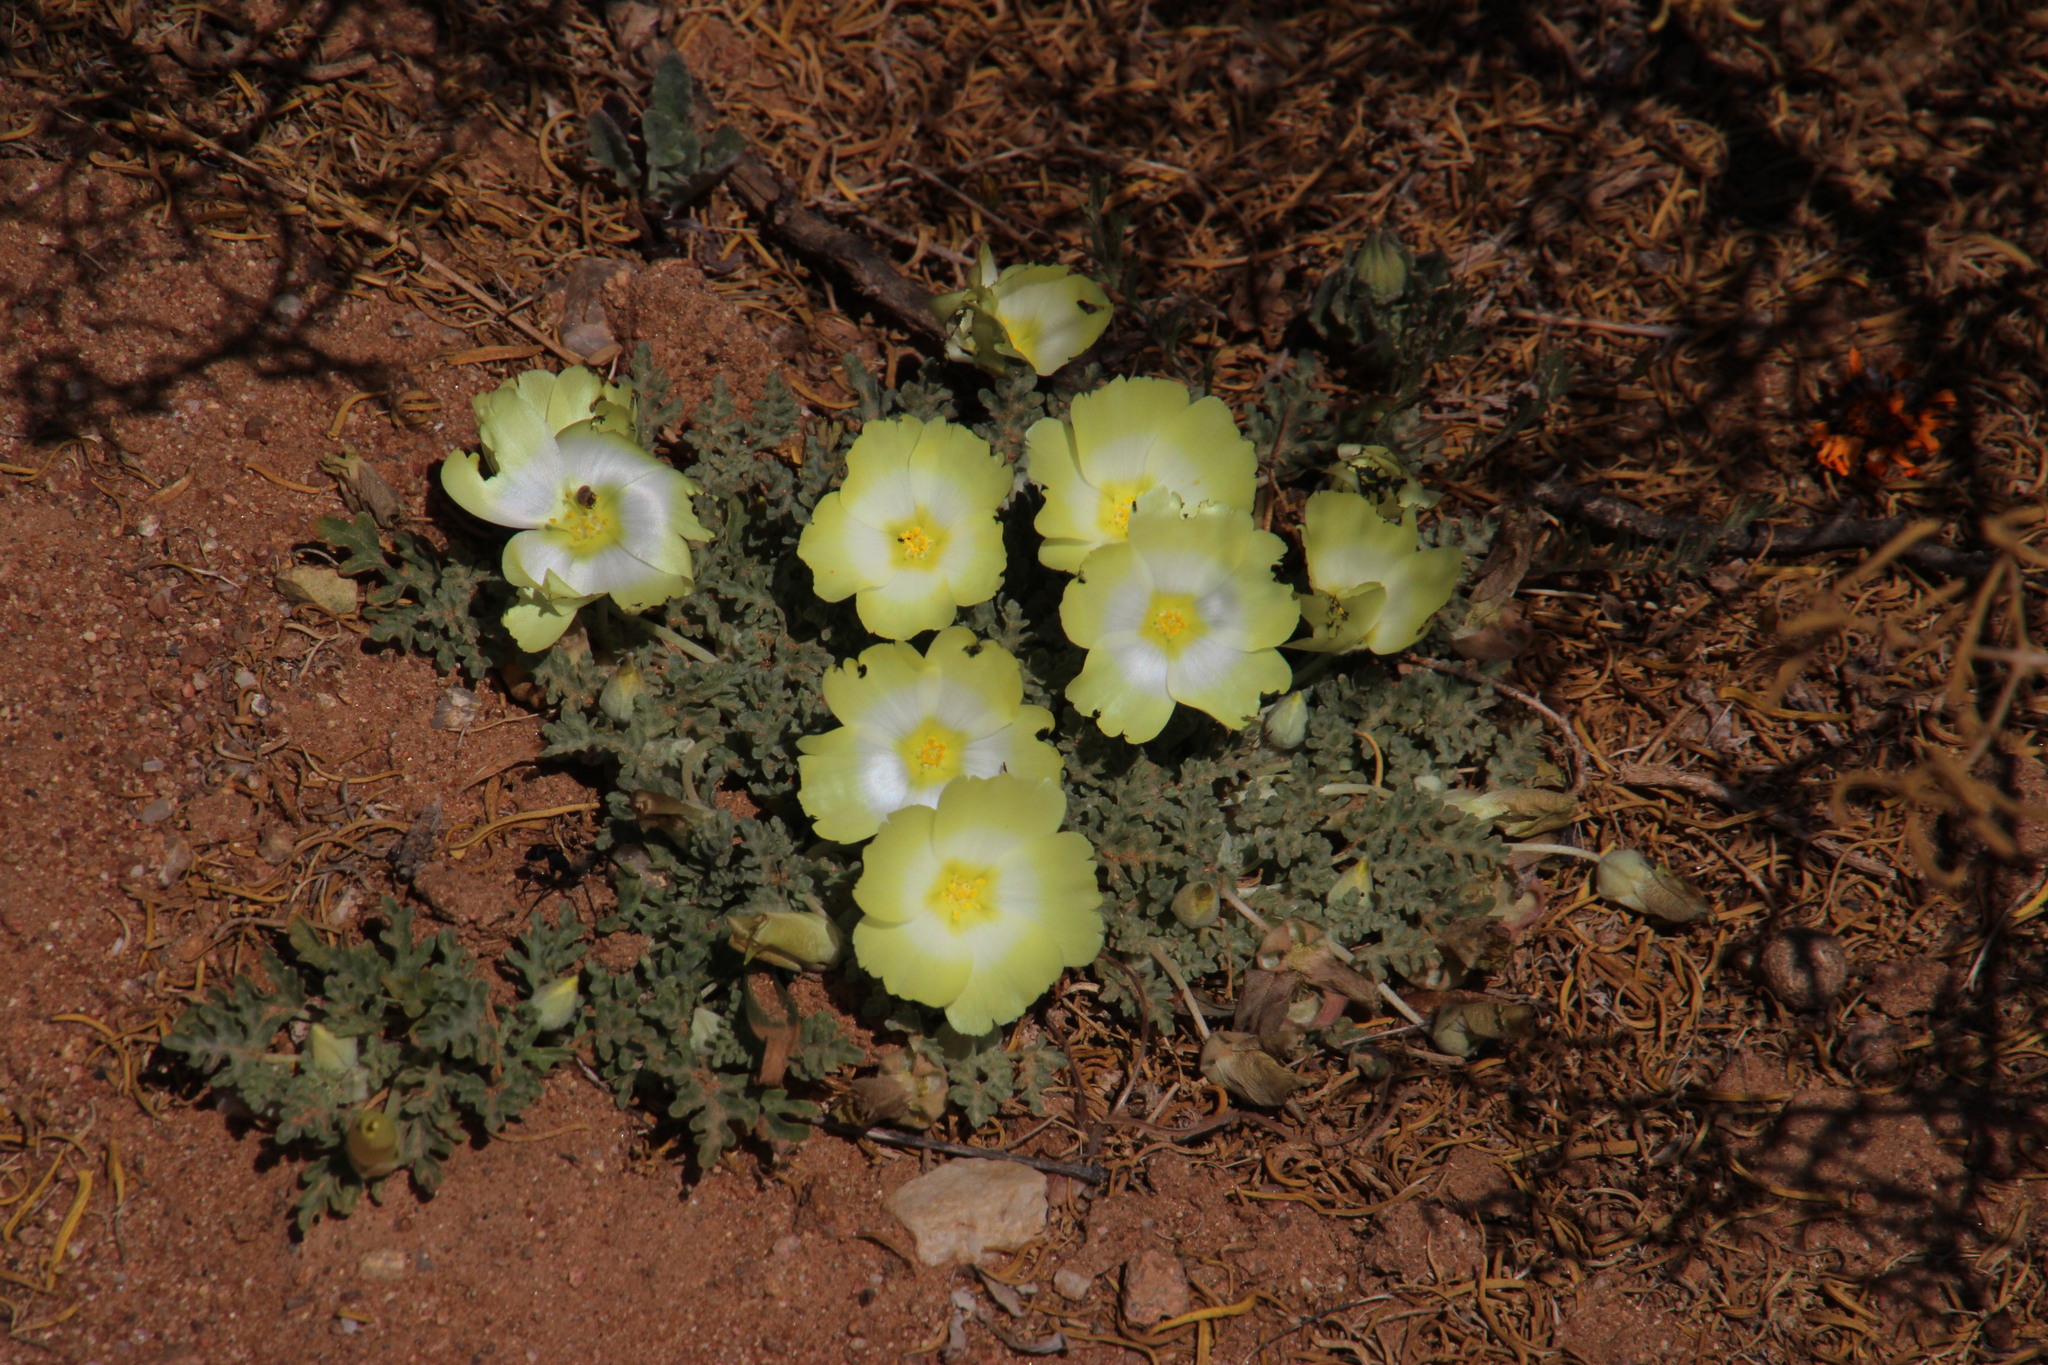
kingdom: Plantae
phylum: Tracheophyta
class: Magnoliopsida
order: Malvales
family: Neuradaceae
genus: Grielum
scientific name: Grielum humifusum
